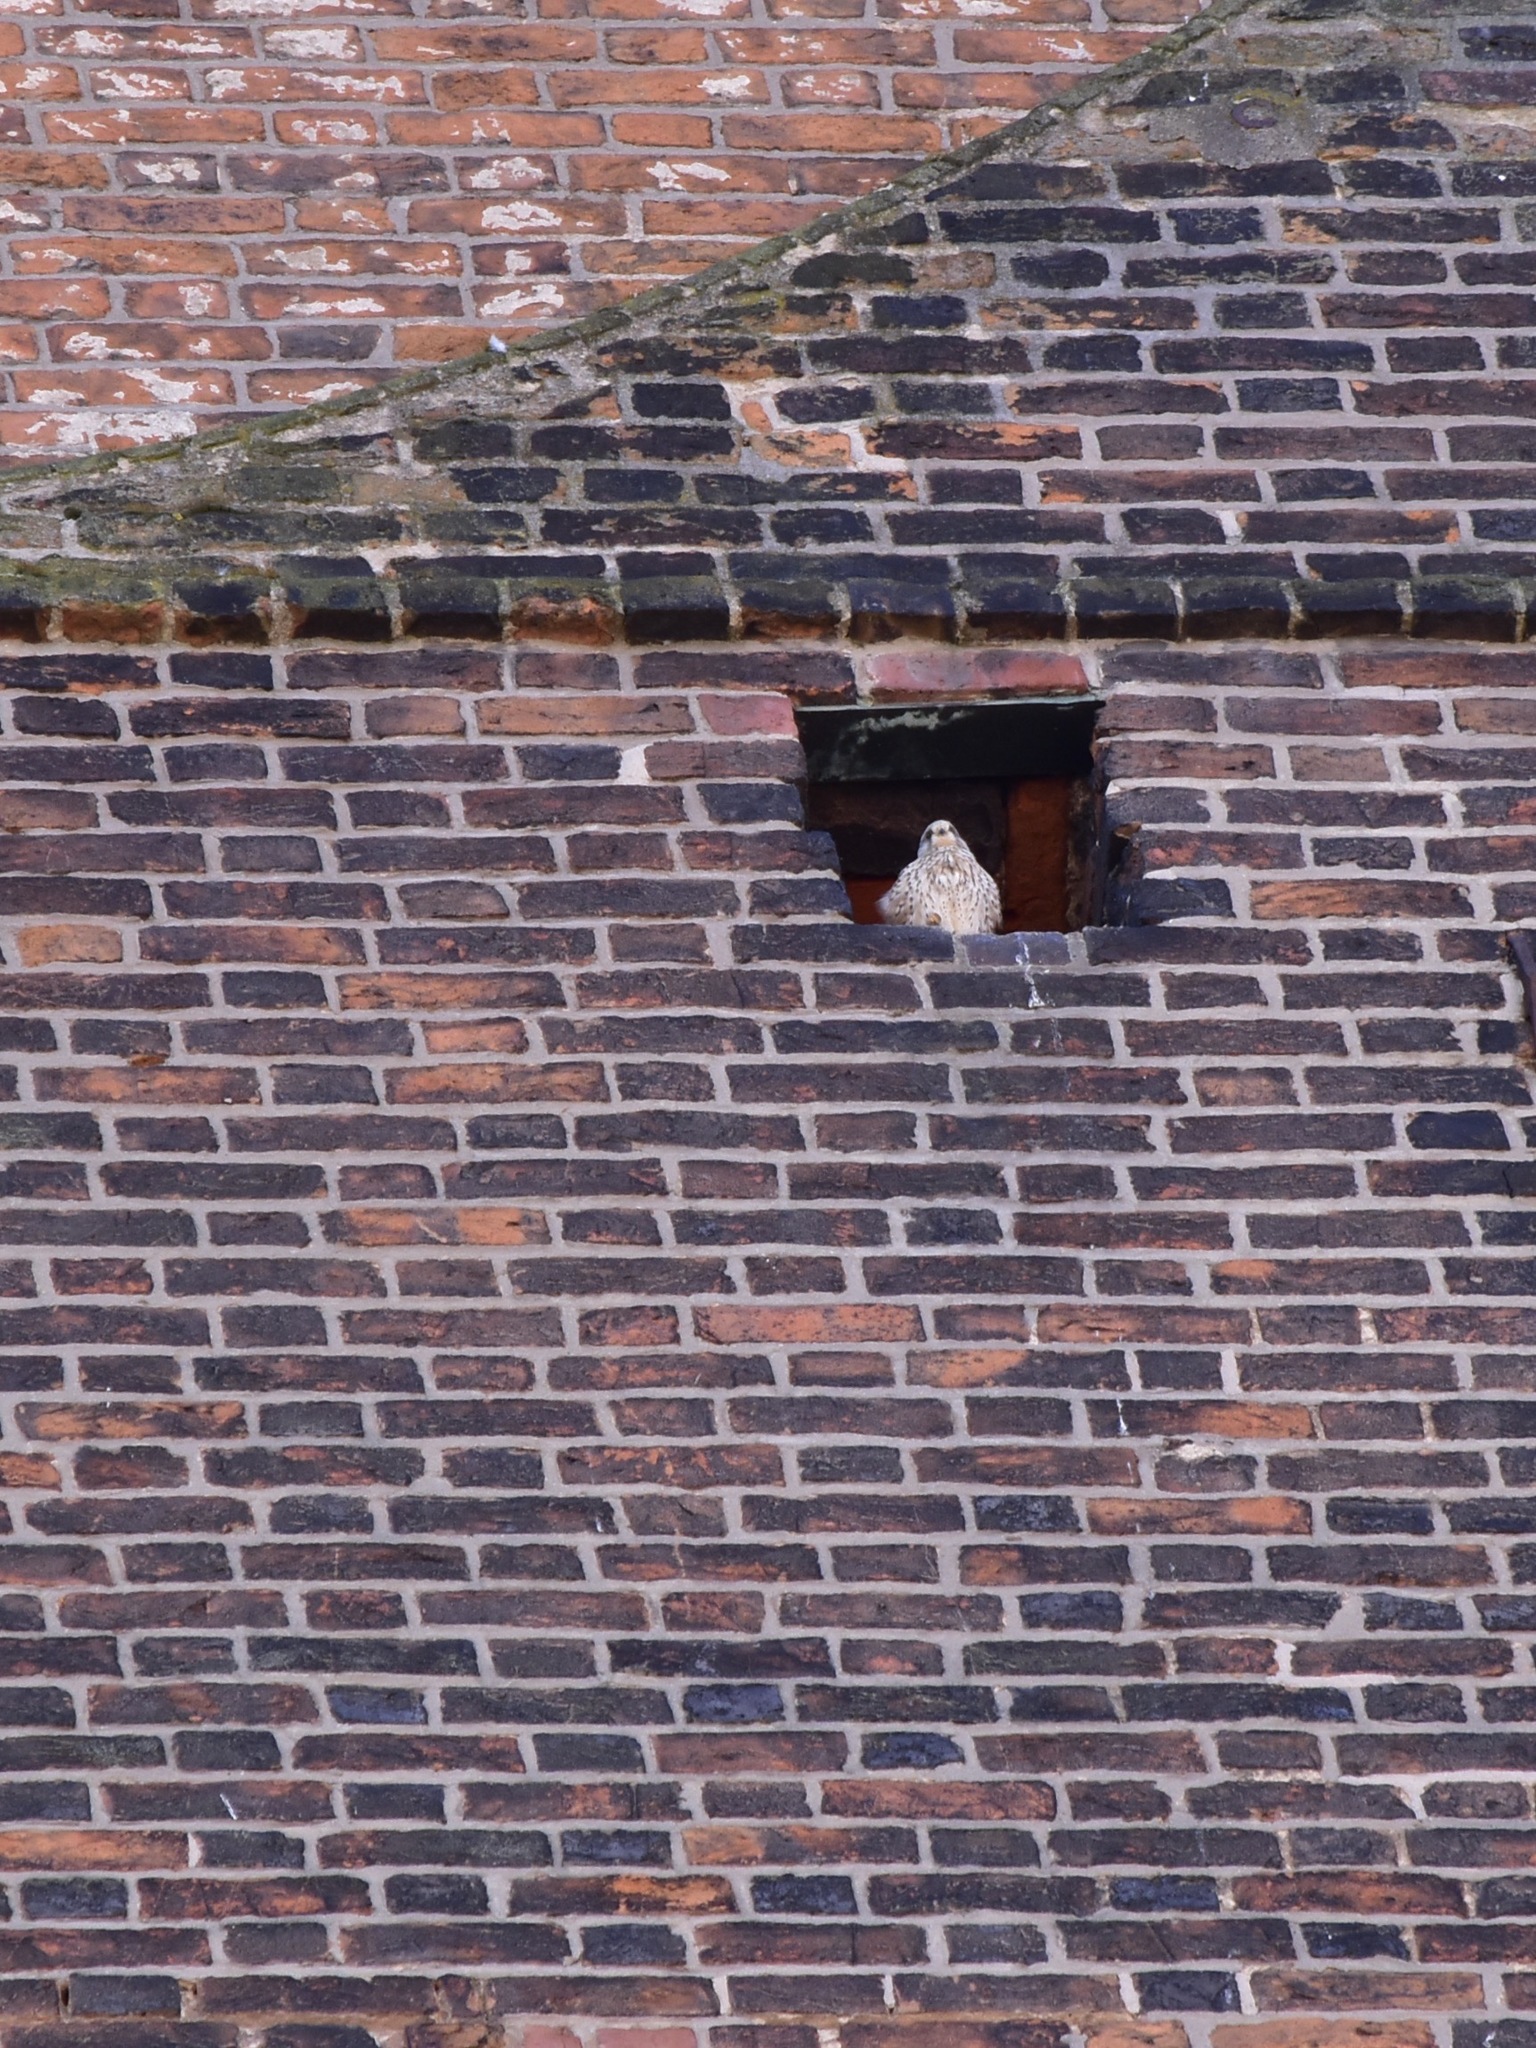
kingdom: Animalia
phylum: Chordata
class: Aves
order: Falconiformes
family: Falconidae
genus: Falco
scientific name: Falco tinnunculus
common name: Common kestrel
